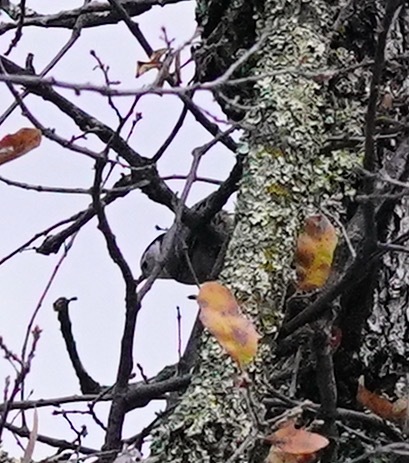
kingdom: Animalia
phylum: Chordata
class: Aves
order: Passeriformes
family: Sittidae
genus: Sitta
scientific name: Sitta carolinensis
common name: White-breasted nuthatch
